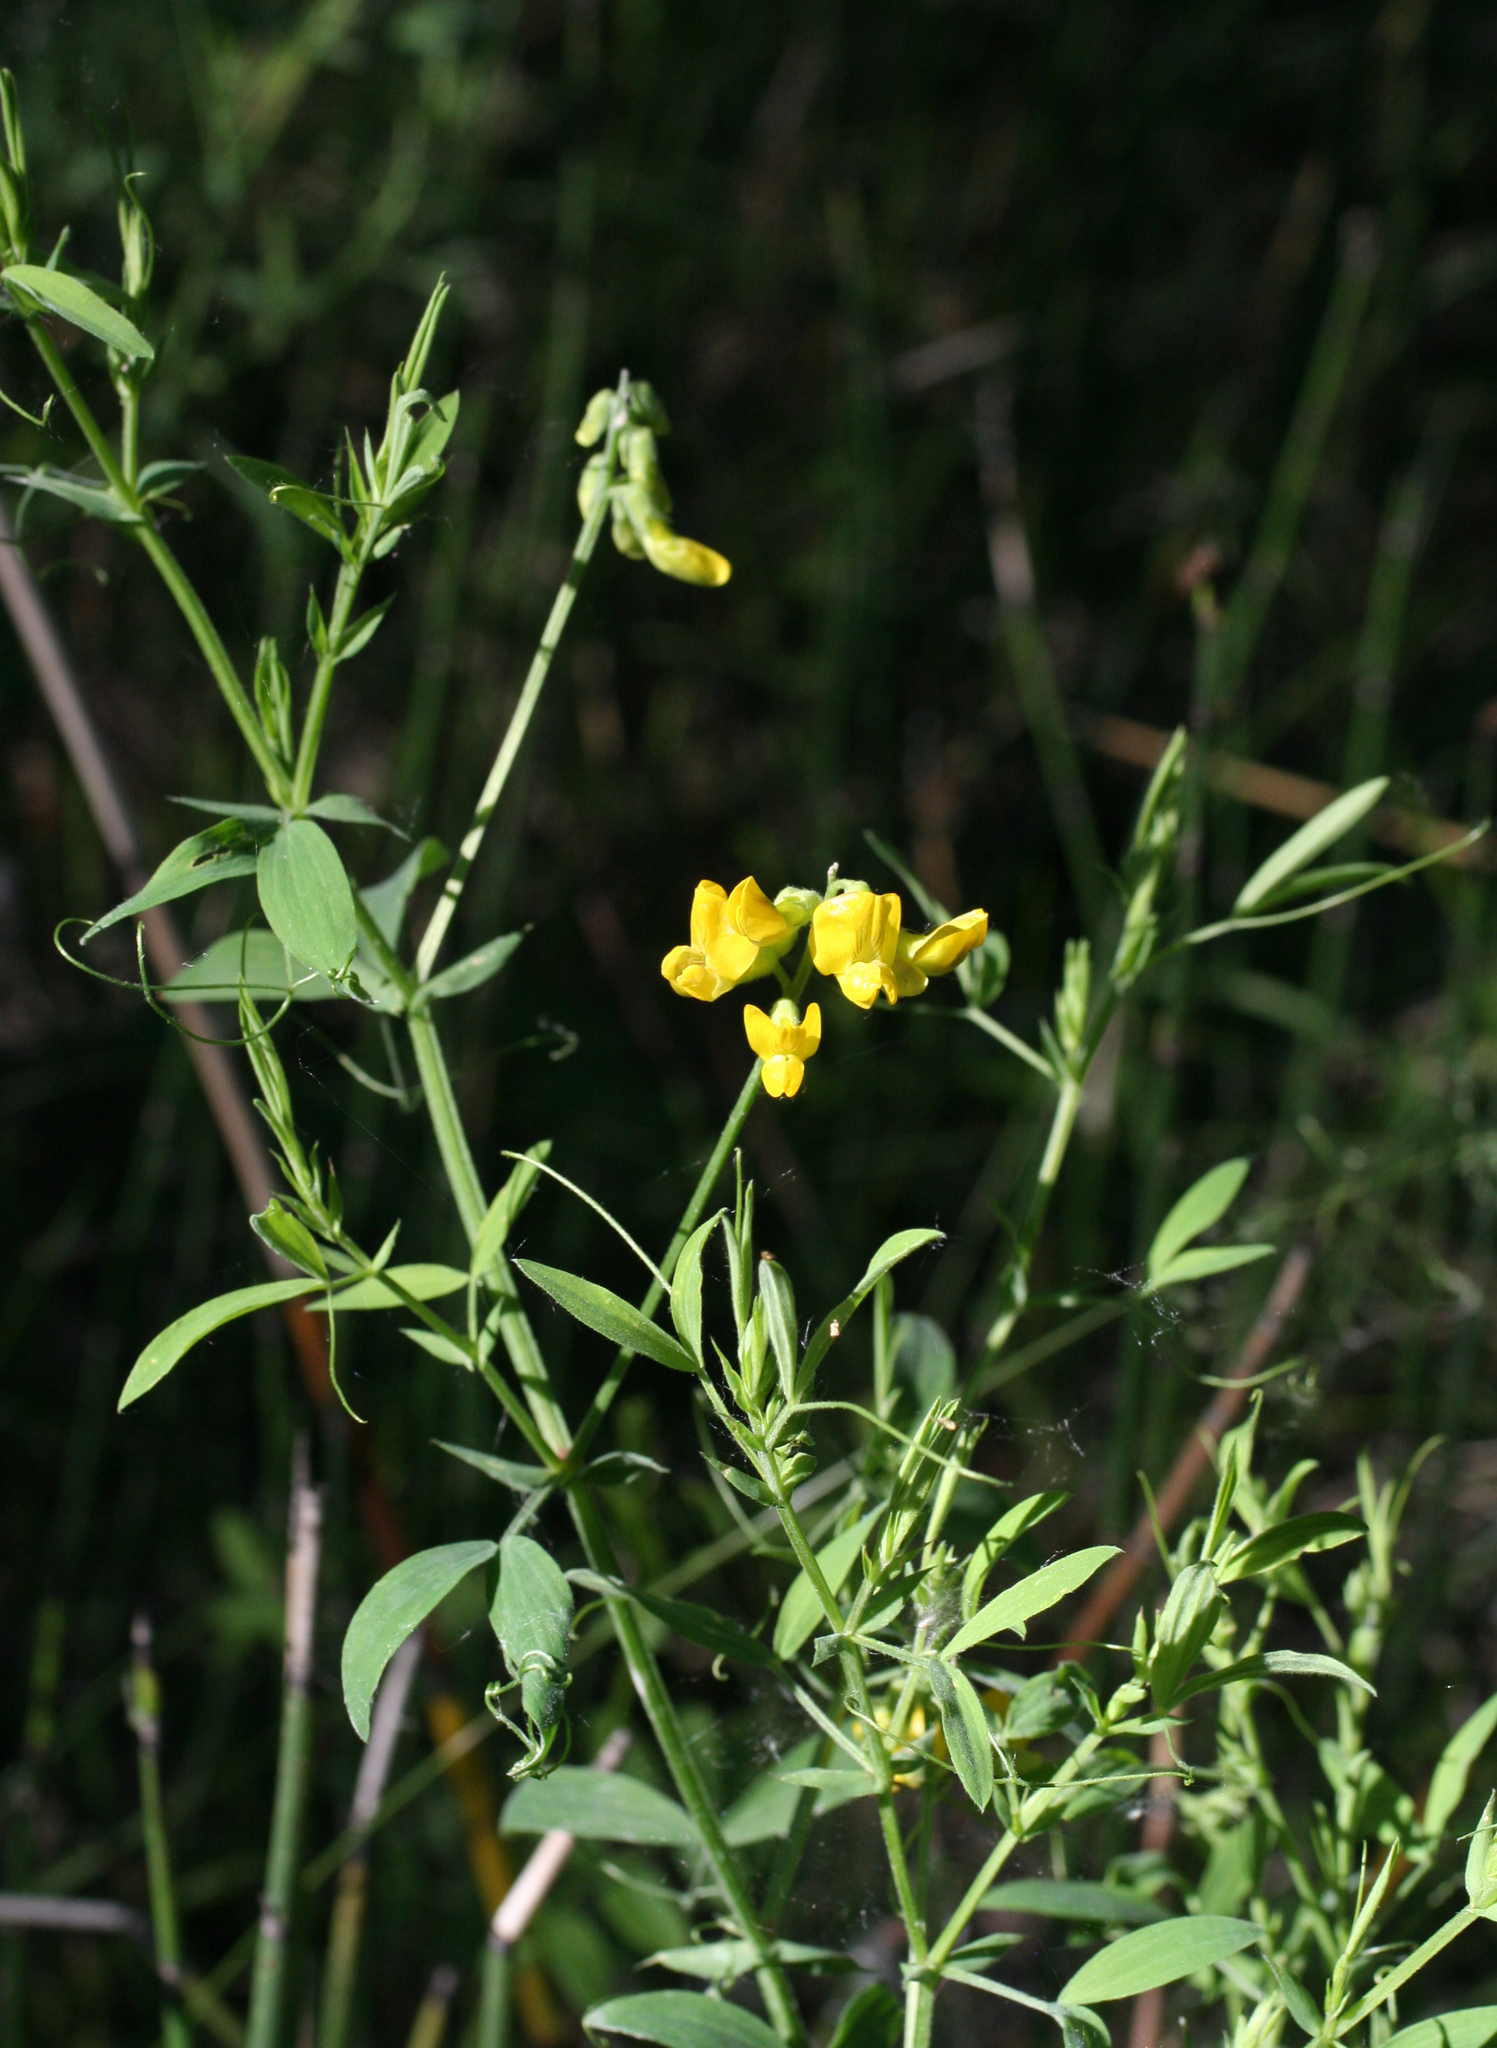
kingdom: Plantae
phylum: Tracheophyta
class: Magnoliopsida
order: Fabales
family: Fabaceae
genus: Lathyrus
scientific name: Lathyrus pratensis
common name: Meadow vetchling
